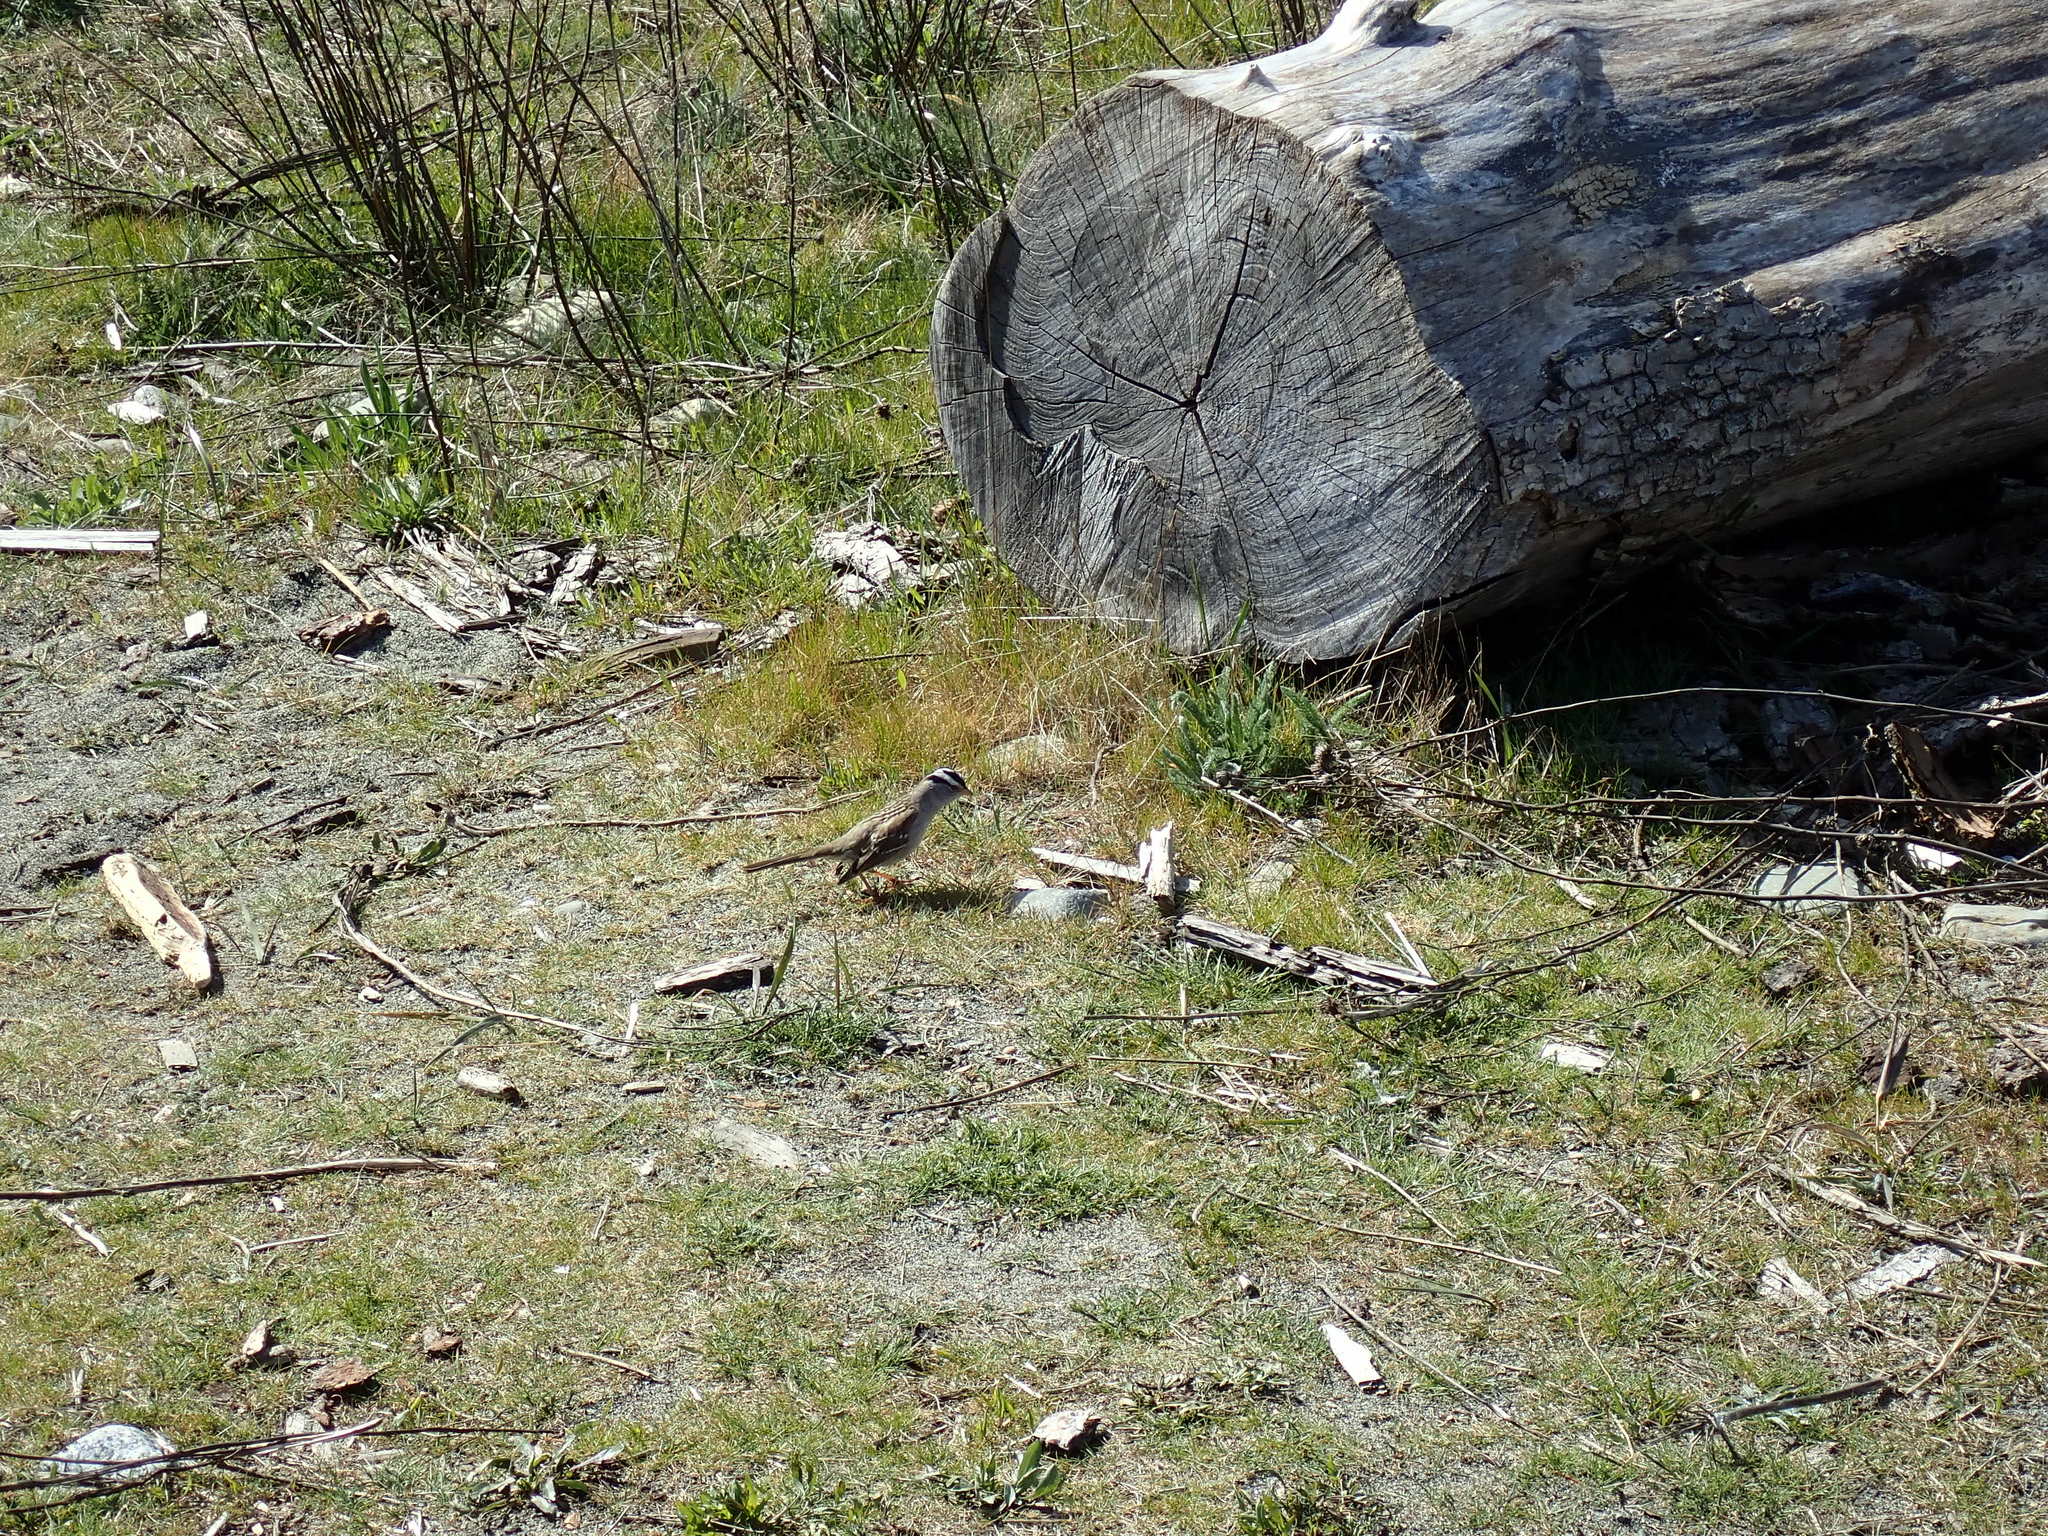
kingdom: Animalia
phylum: Chordata
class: Aves
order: Passeriformes
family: Passerellidae
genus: Zonotrichia
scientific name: Zonotrichia leucophrys
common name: White-crowned sparrow
